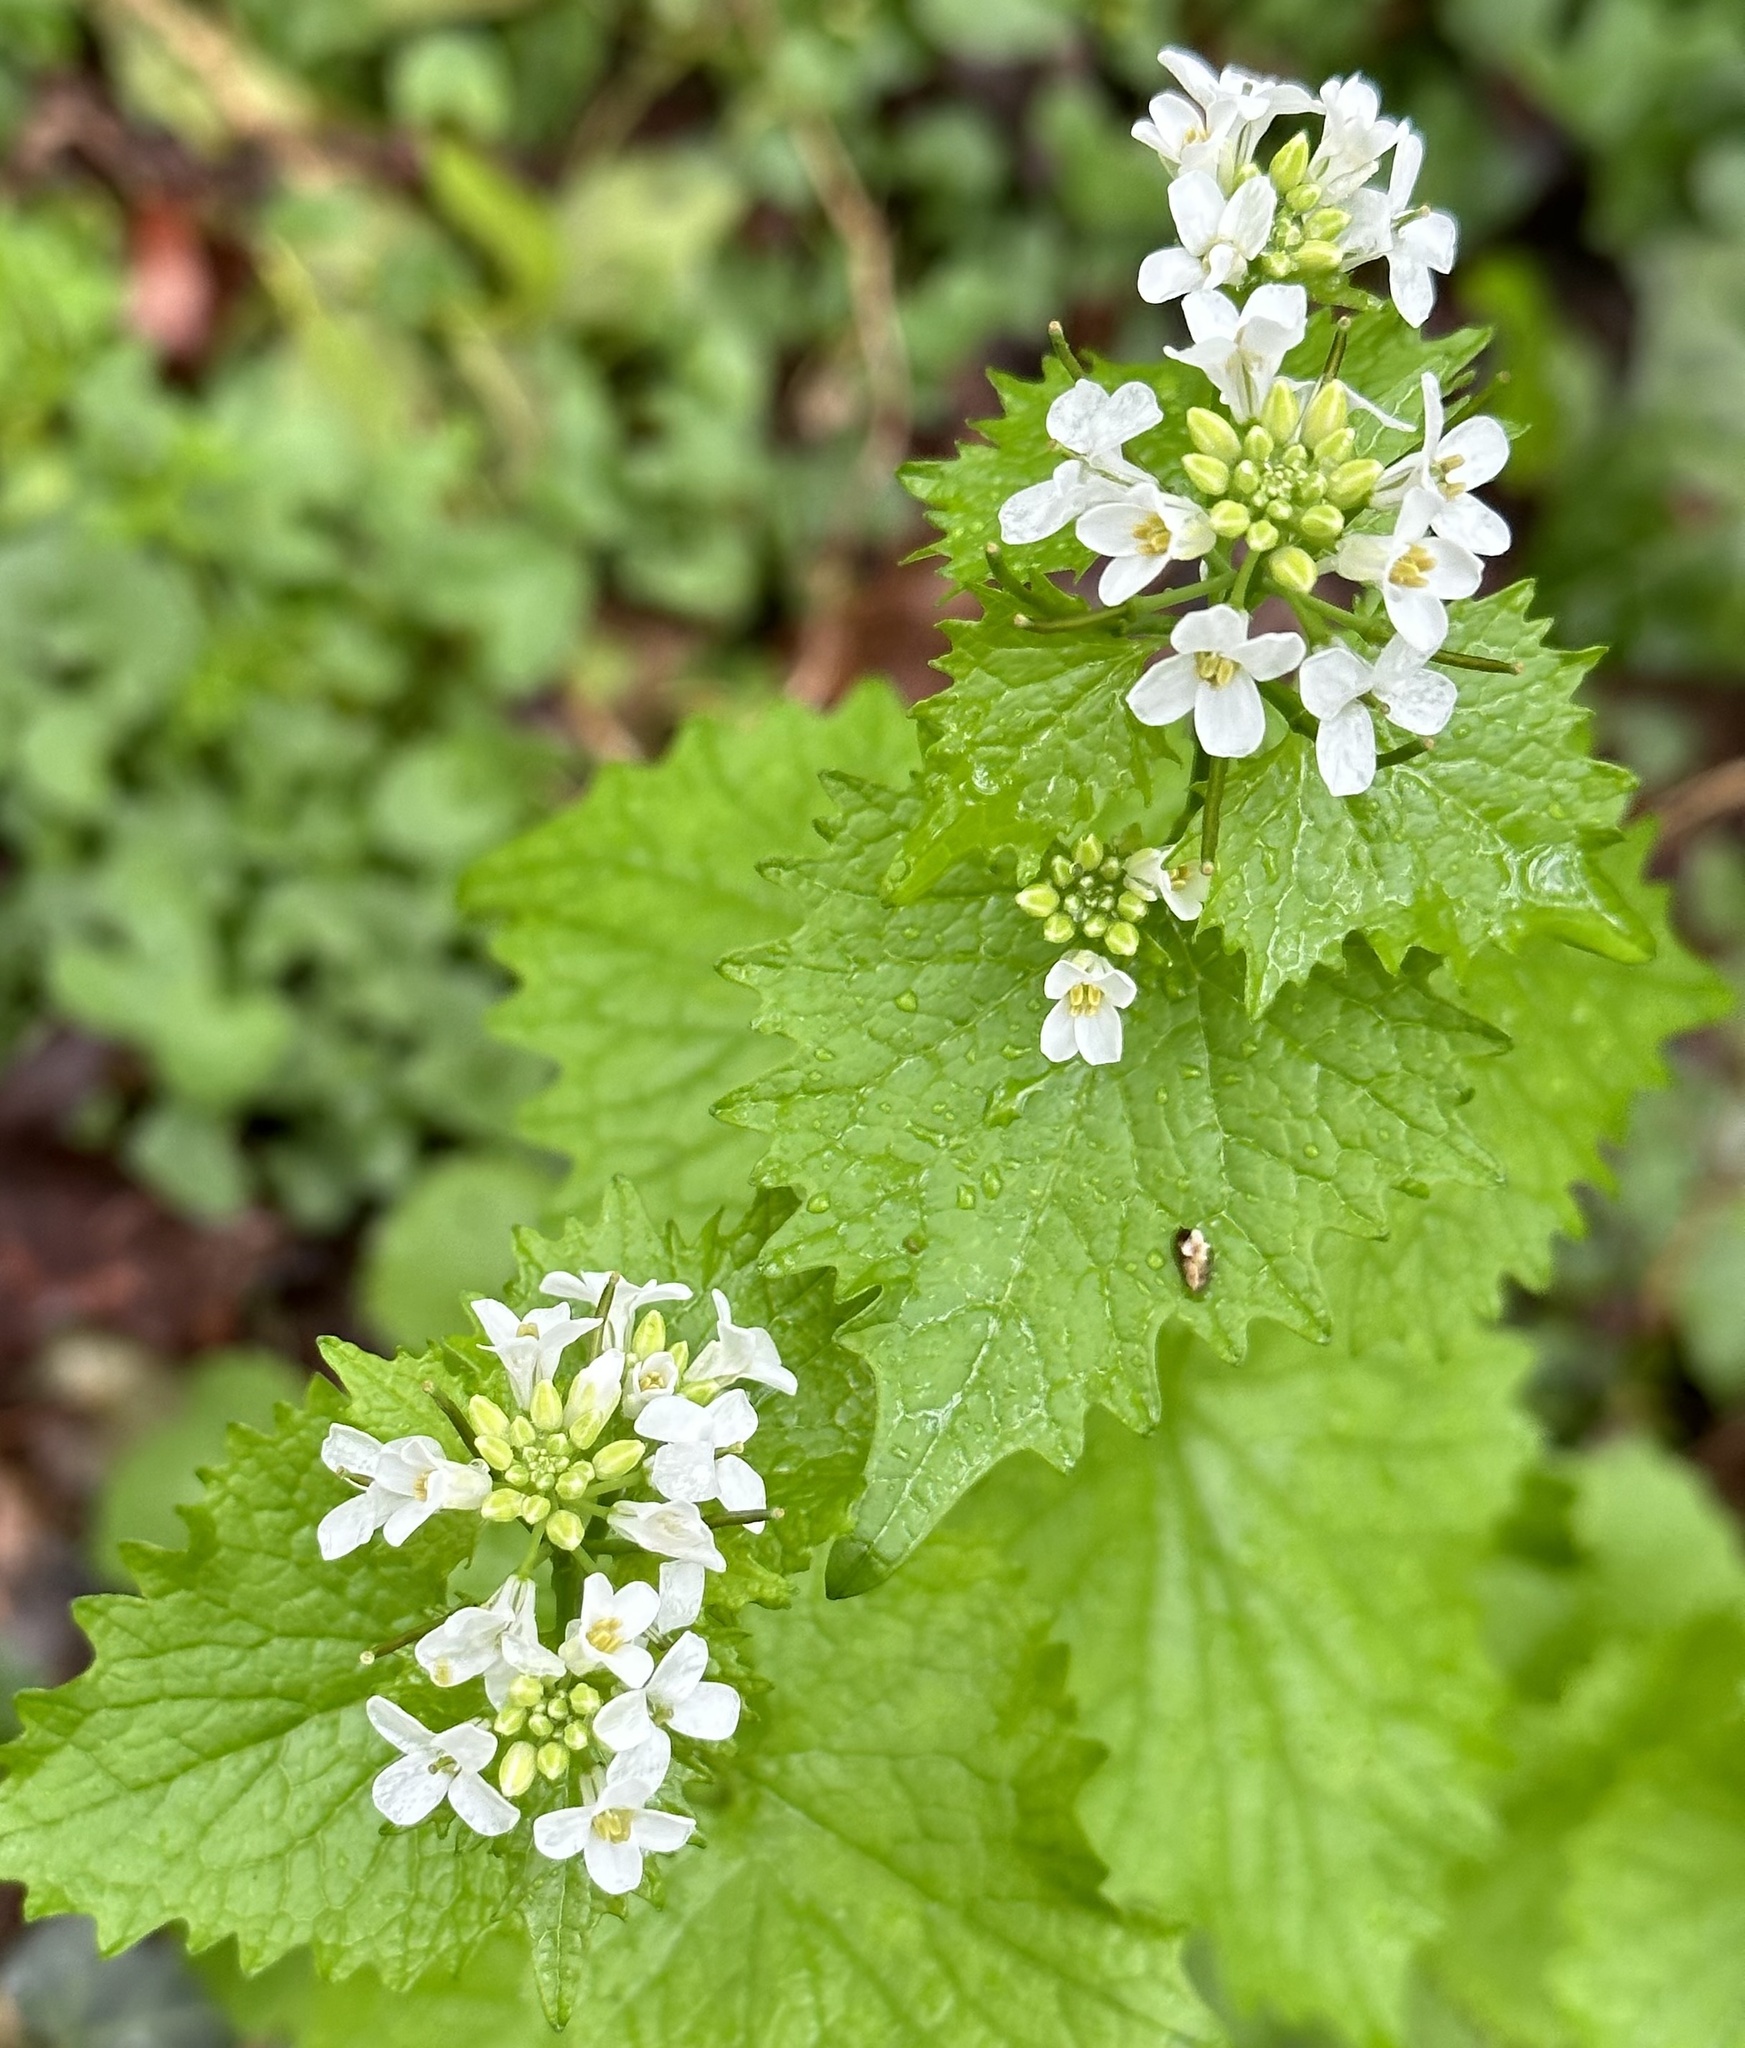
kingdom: Plantae
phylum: Tracheophyta
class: Magnoliopsida
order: Brassicales
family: Brassicaceae
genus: Alliaria
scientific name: Alliaria petiolata
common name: Garlic mustard
